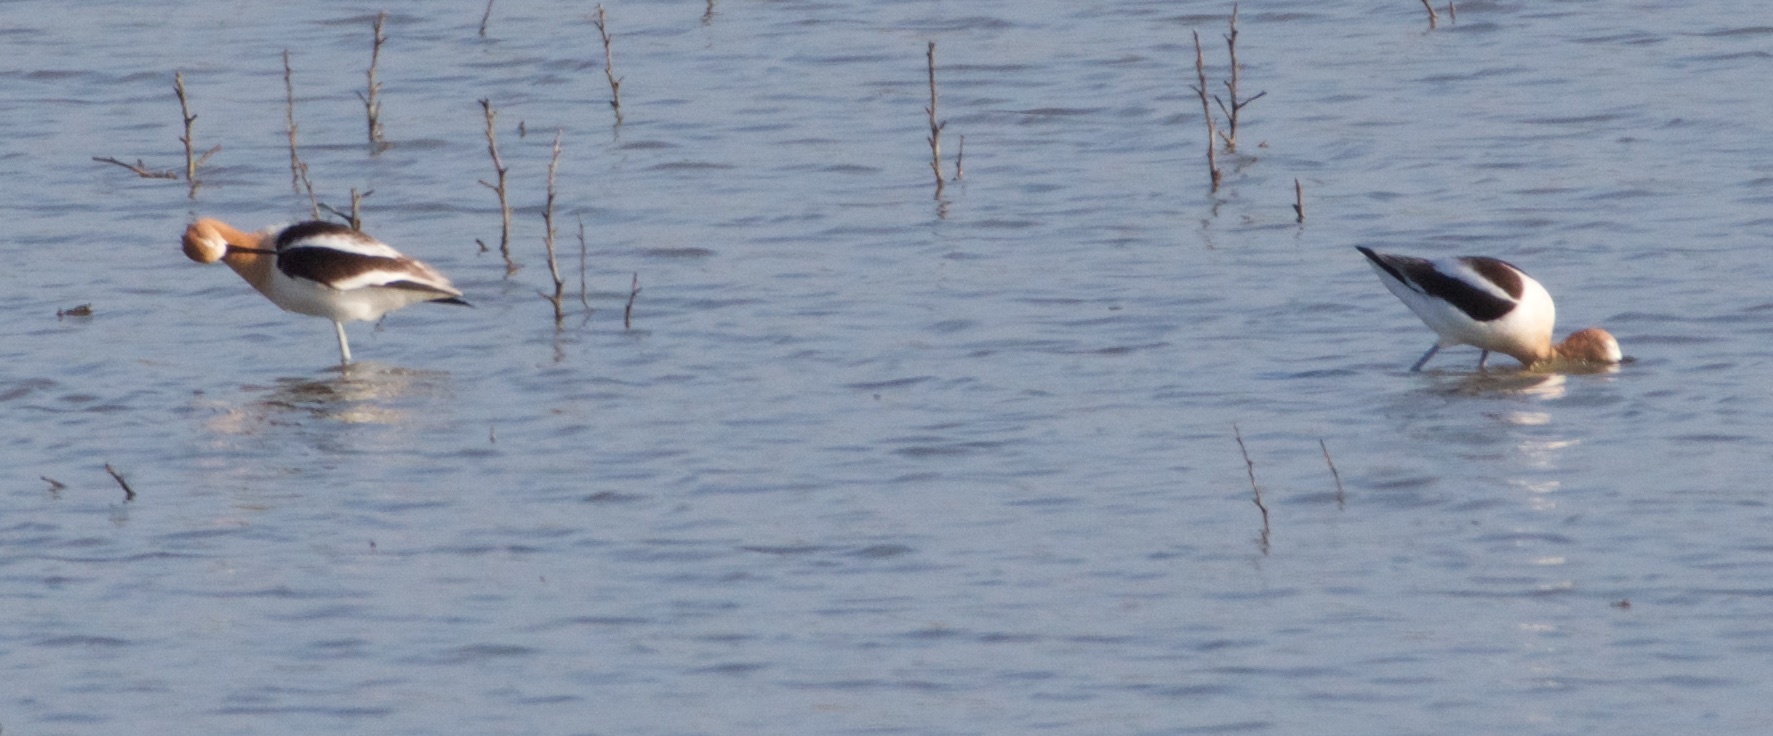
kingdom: Animalia
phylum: Chordata
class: Aves
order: Charadriiformes
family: Recurvirostridae
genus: Recurvirostra
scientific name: Recurvirostra americana
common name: American avocet
